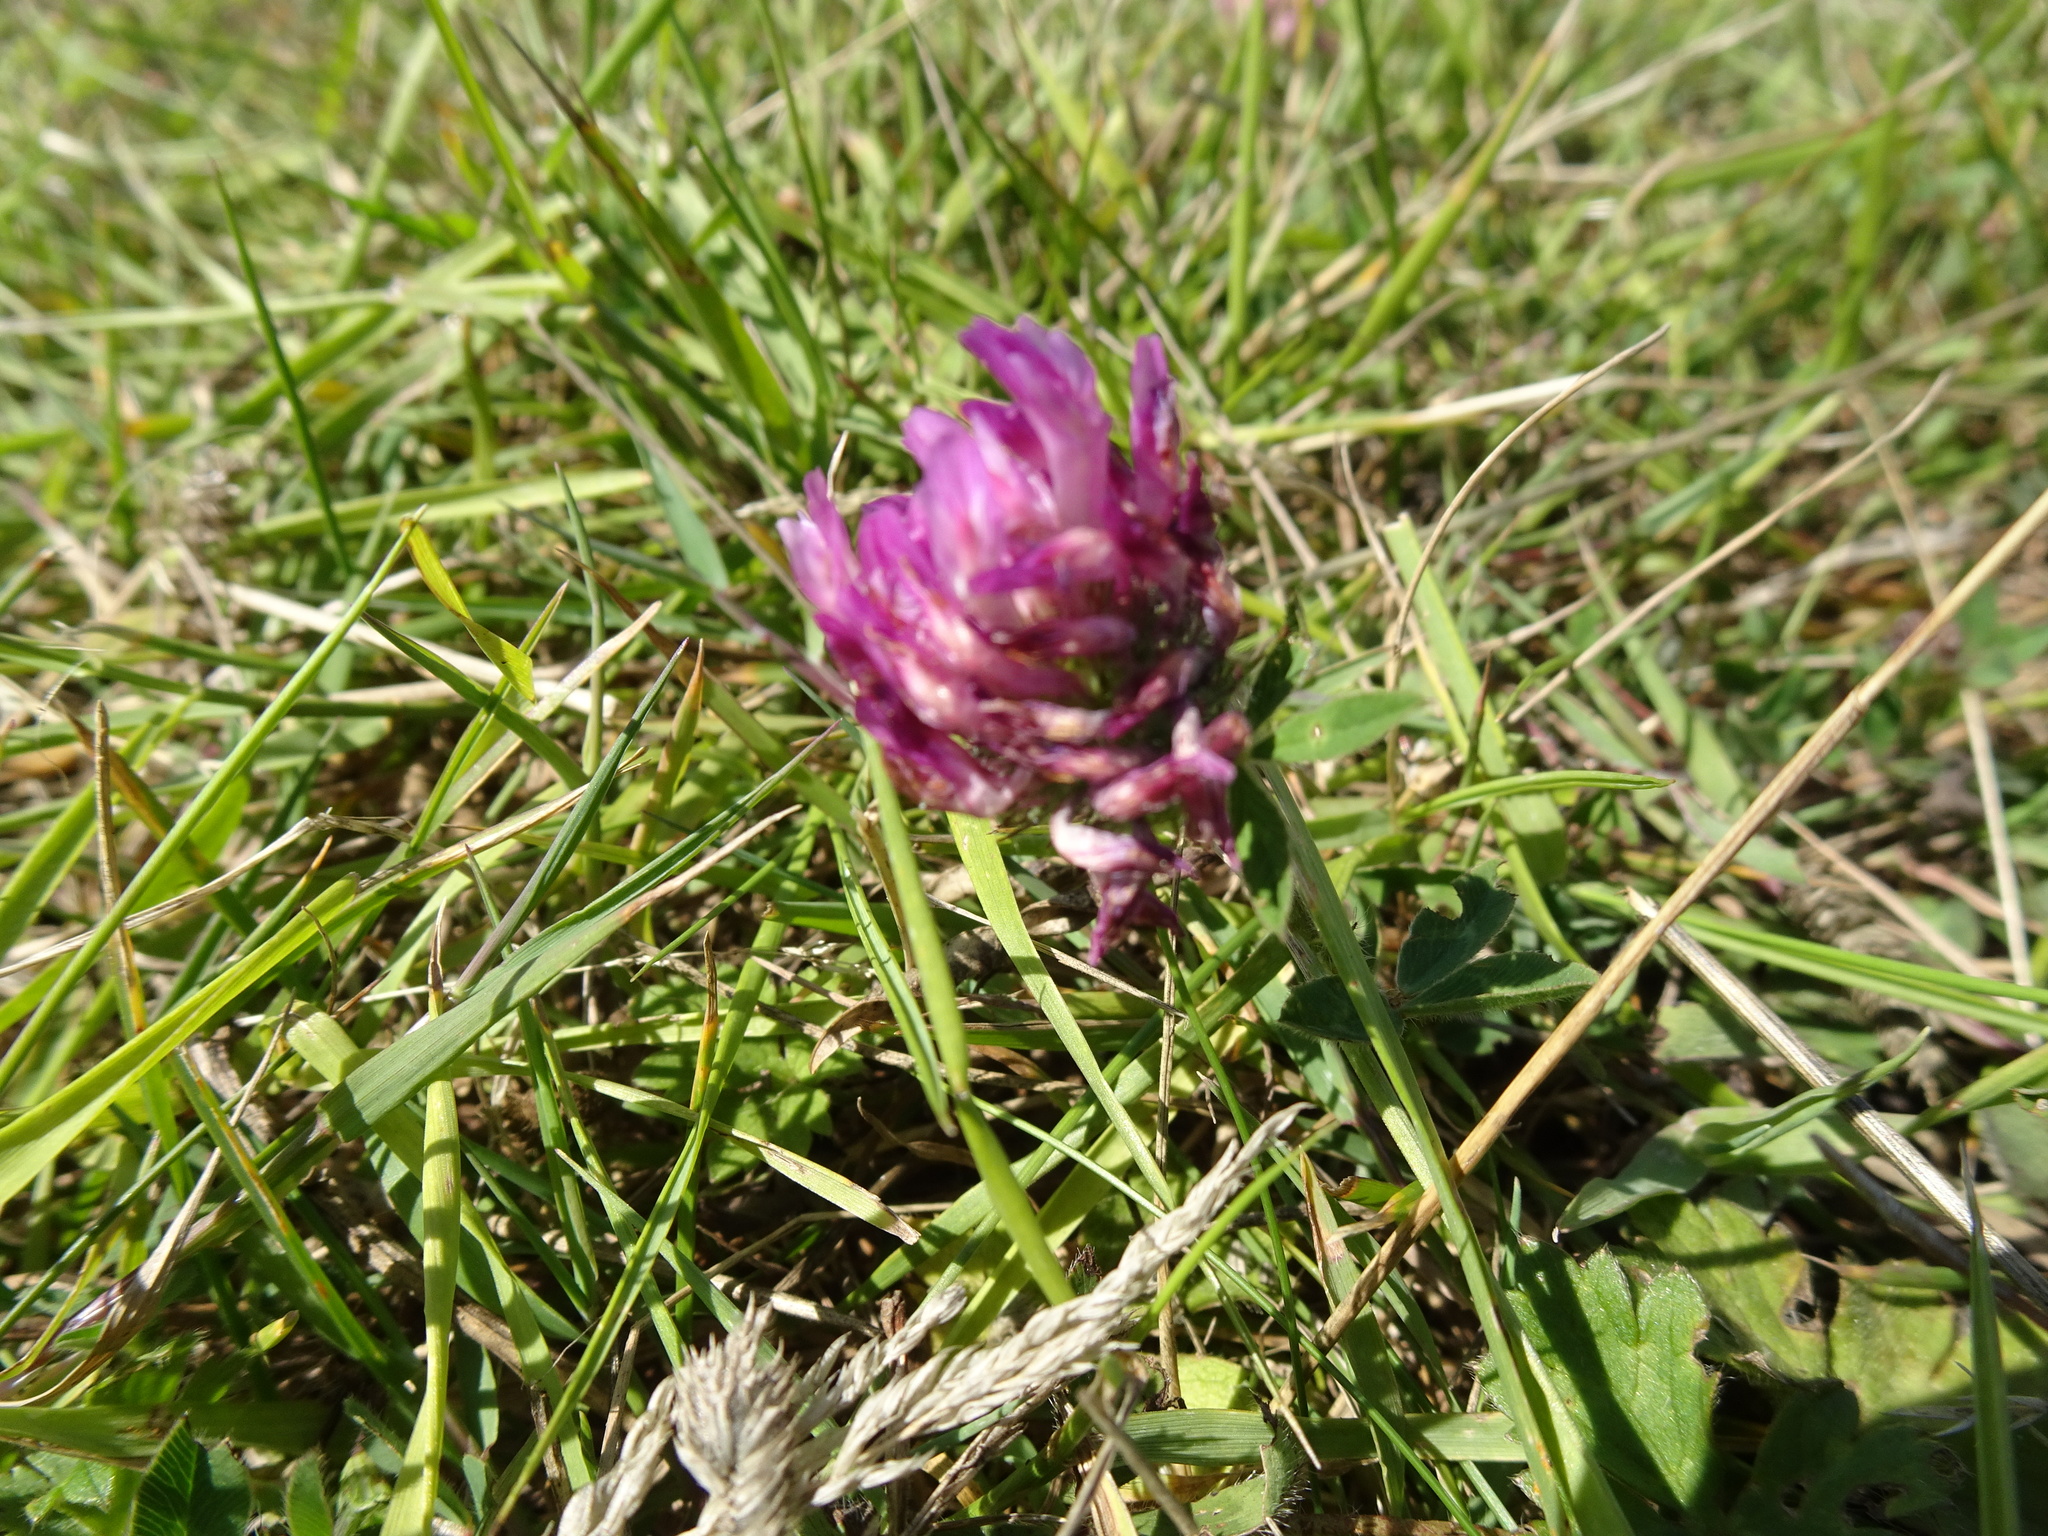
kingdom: Plantae
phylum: Tracheophyta
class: Magnoliopsida
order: Fabales
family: Fabaceae
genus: Trifolium
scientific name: Trifolium pratense
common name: Red clover
